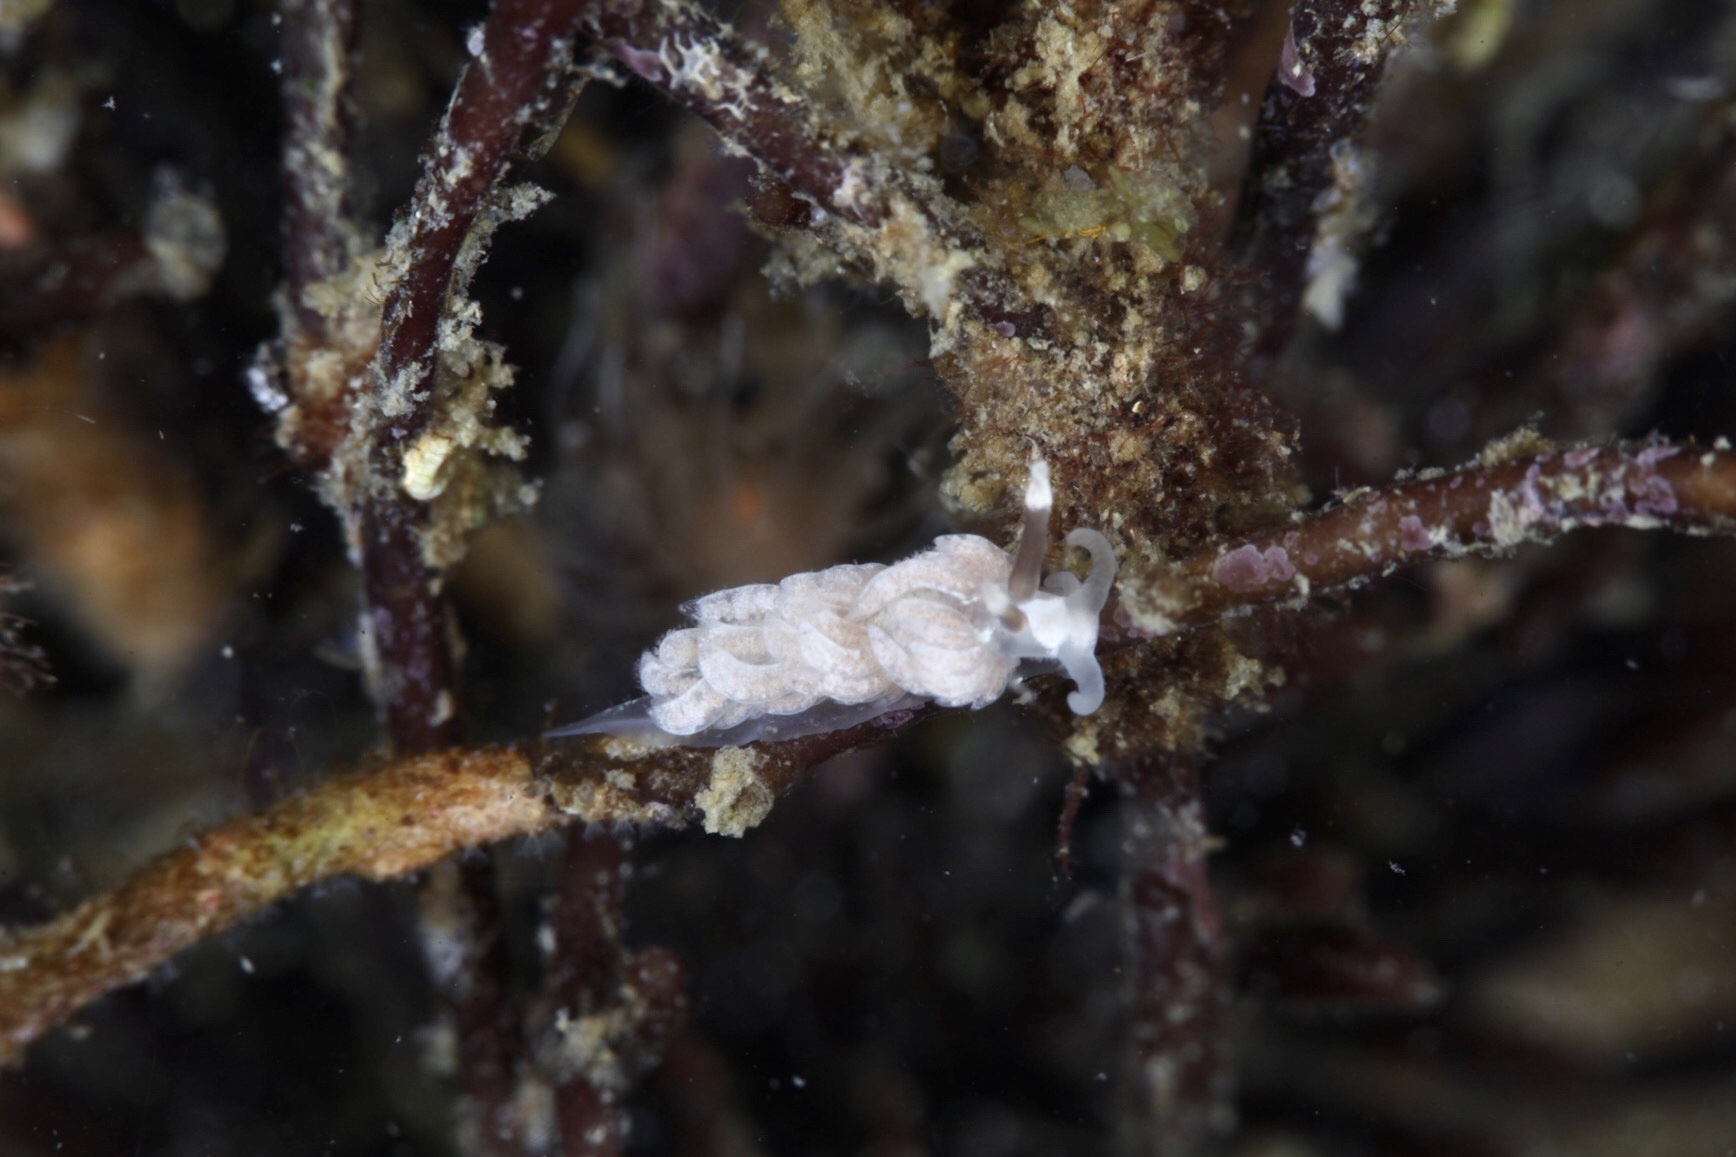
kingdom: Animalia
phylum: Mollusca
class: Gastropoda
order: Nudibranchia
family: Facelinidae
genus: Favorinus
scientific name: Favorinus branchialis
